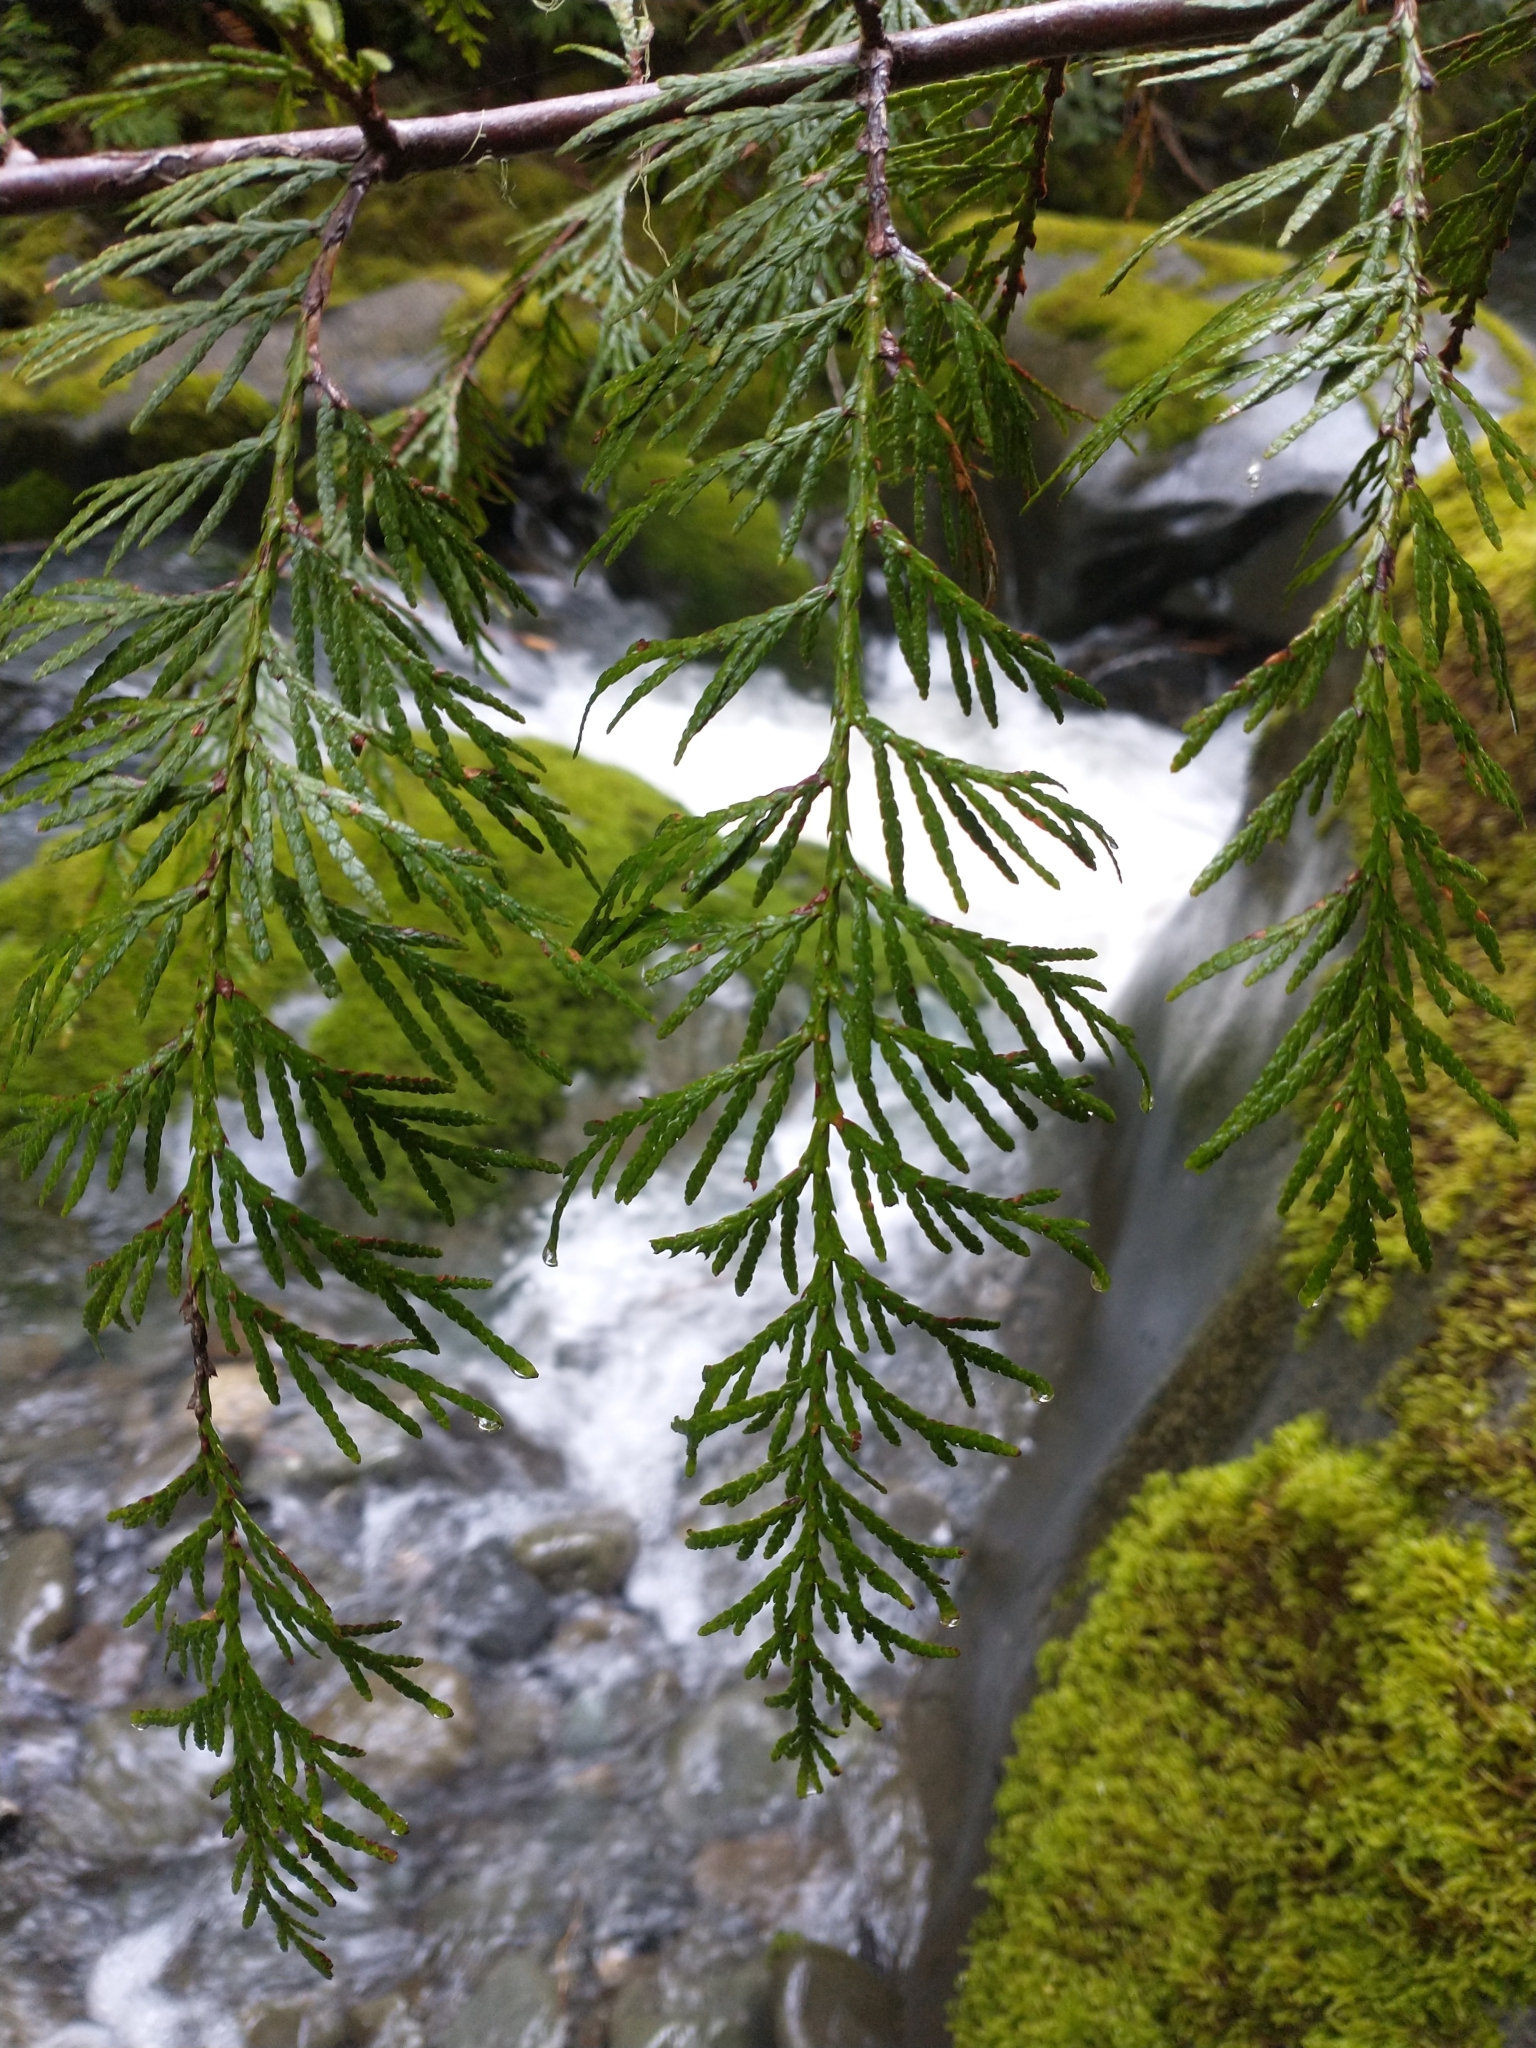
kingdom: Plantae
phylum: Tracheophyta
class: Pinopsida
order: Pinales
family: Cupressaceae
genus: Thuja
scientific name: Thuja plicata
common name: Western red-cedar
